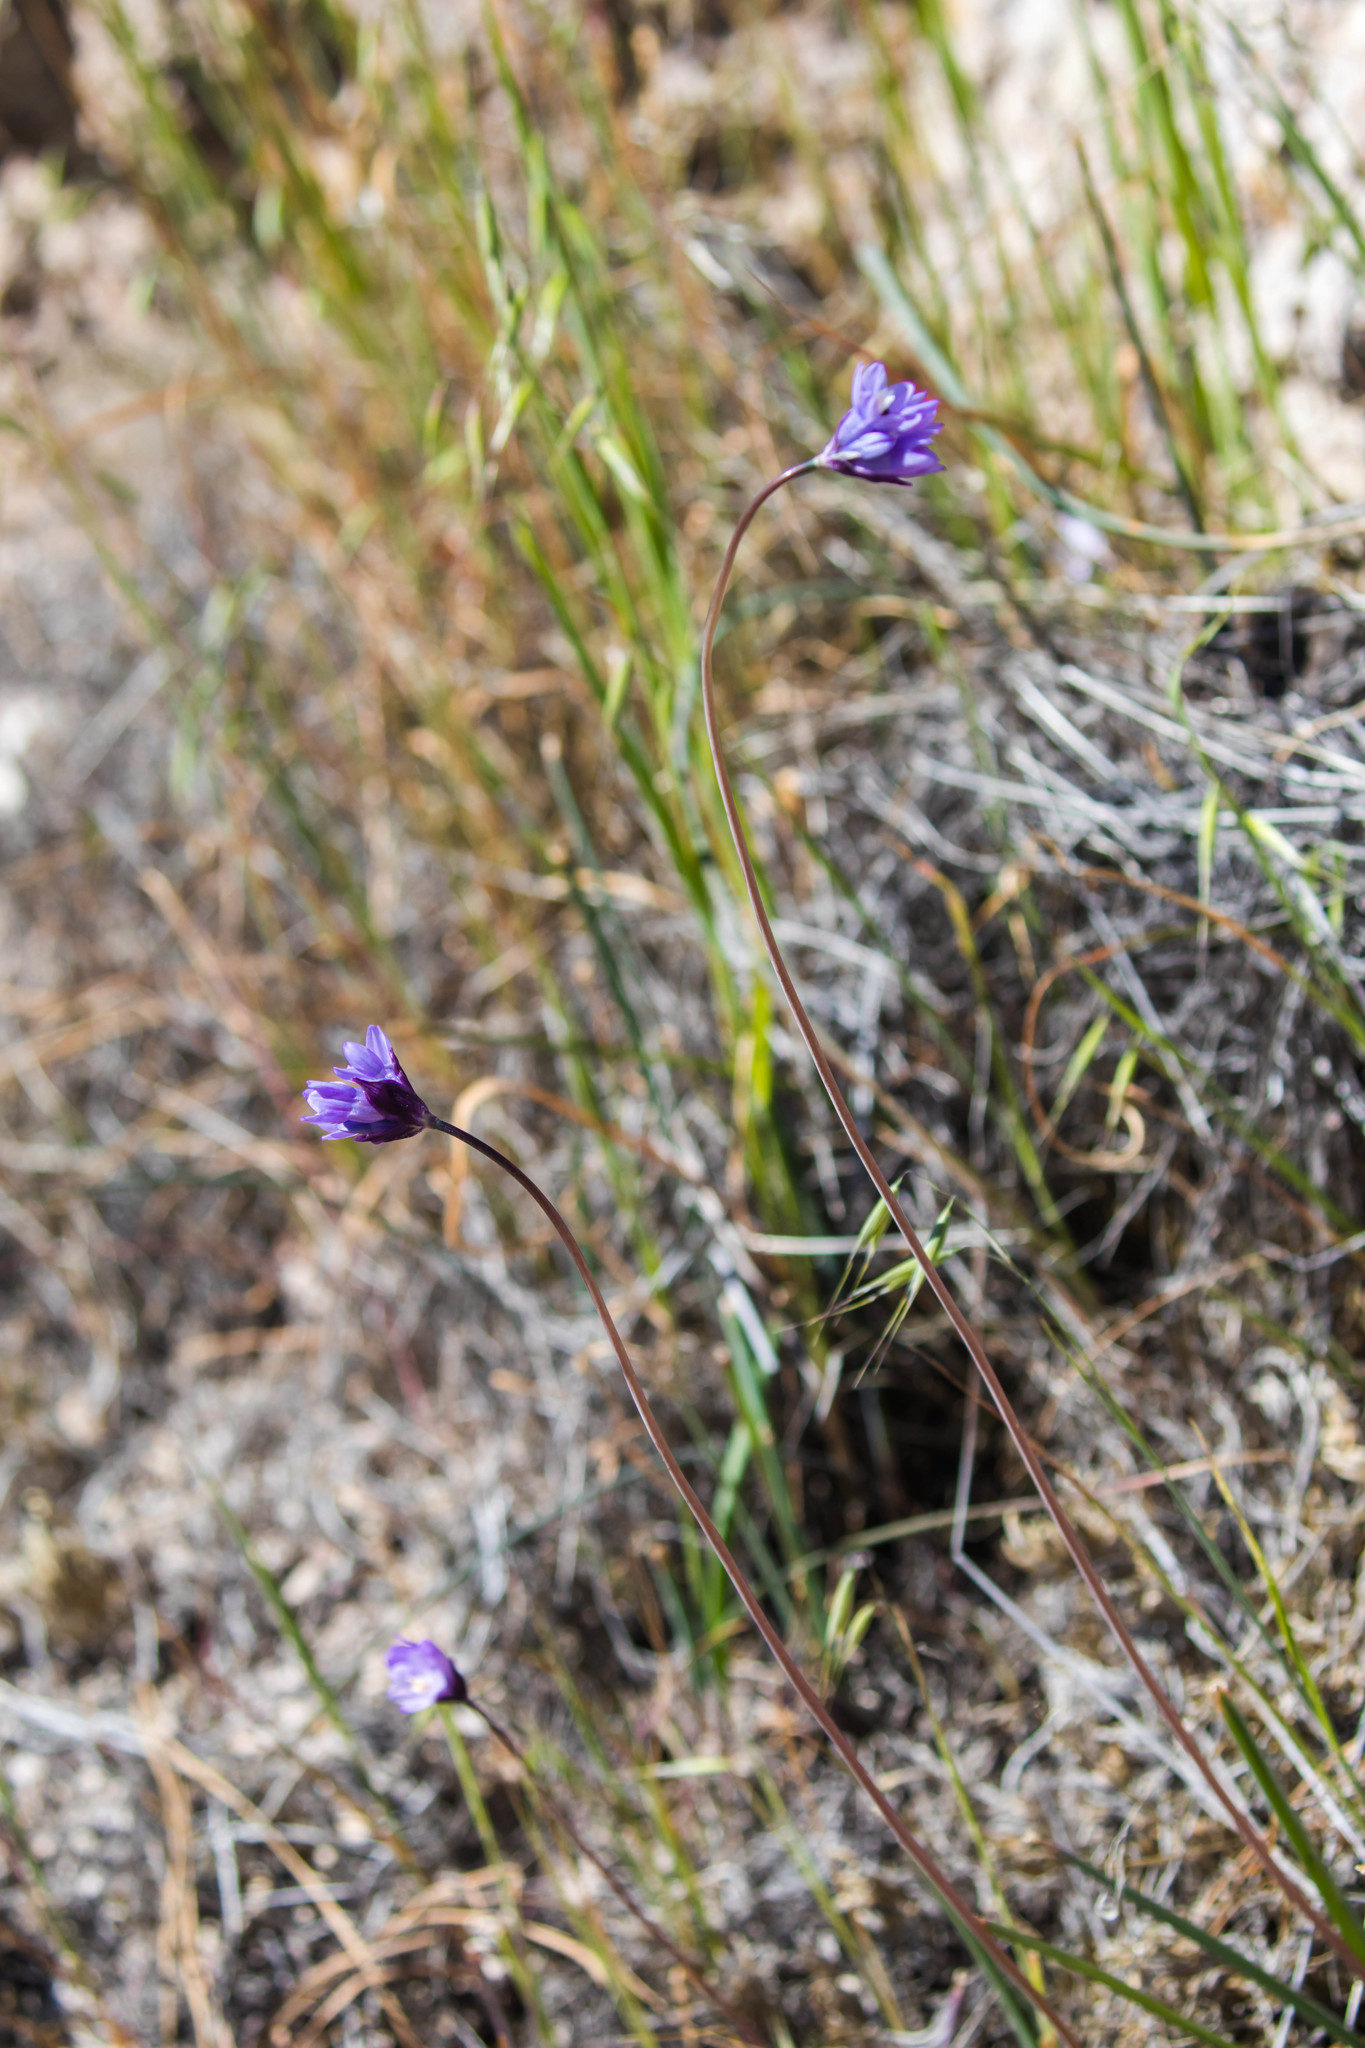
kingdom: Plantae
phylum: Tracheophyta
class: Liliopsida
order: Asparagales
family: Asparagaceae
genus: Dipterostemon
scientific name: Dipterostemon capitatus
